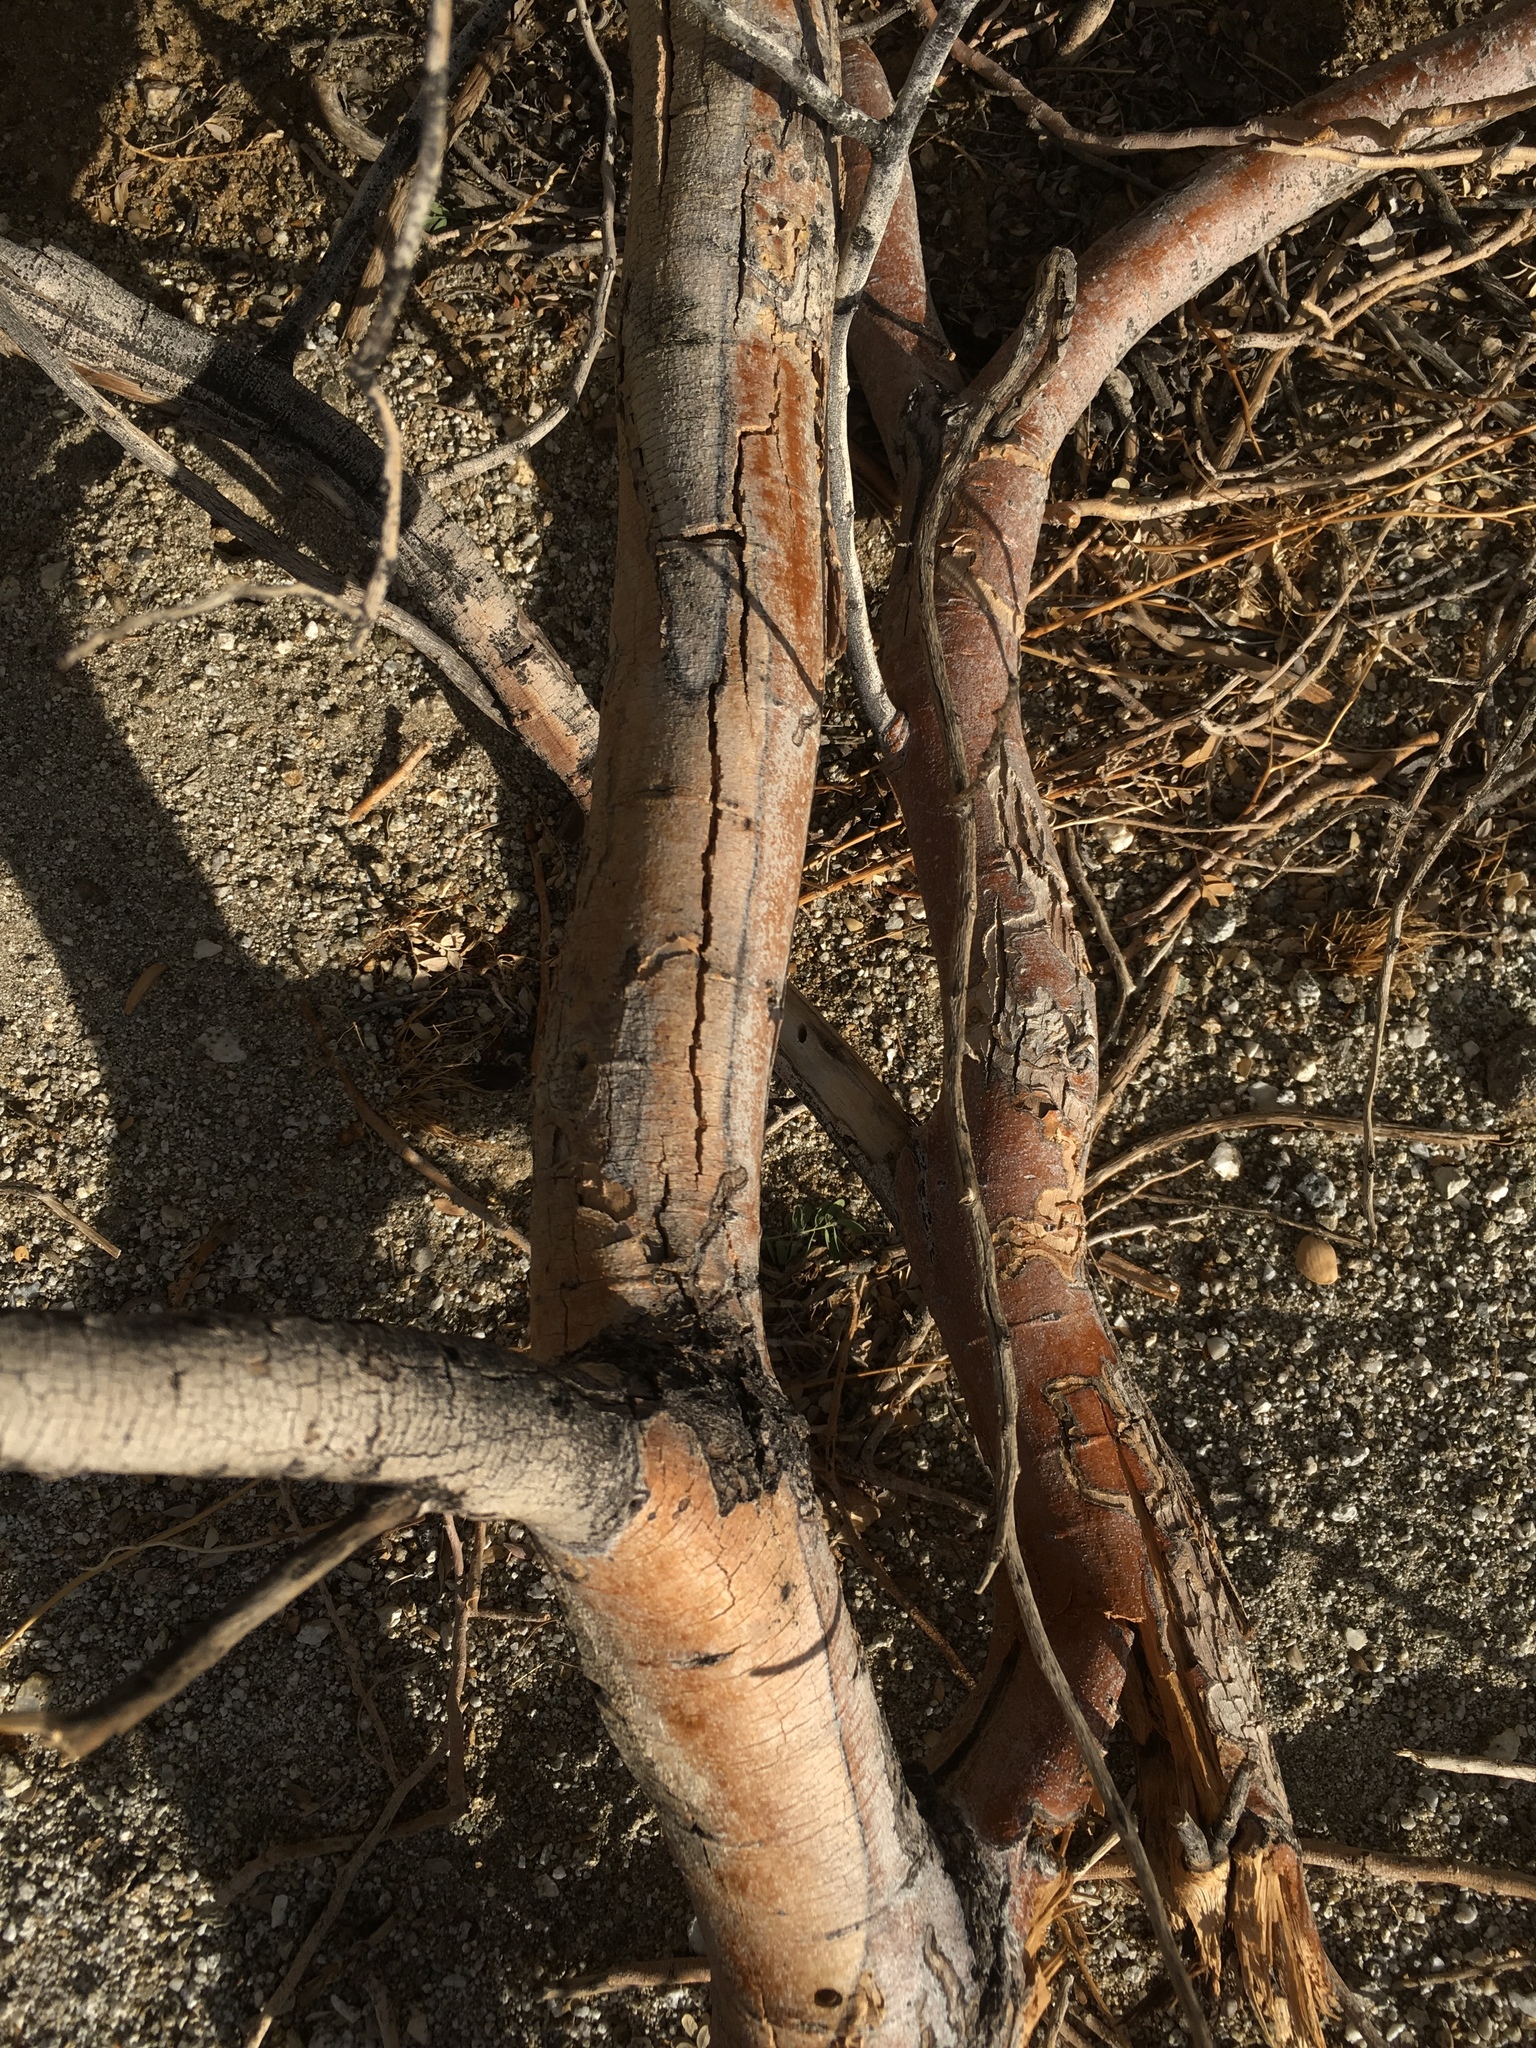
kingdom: Plantae
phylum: Tracheophyta
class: Magnoliopsida
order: Fabales
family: Fabaceae
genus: Olneya
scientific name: Olneya tesota
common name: Desert ironwood
